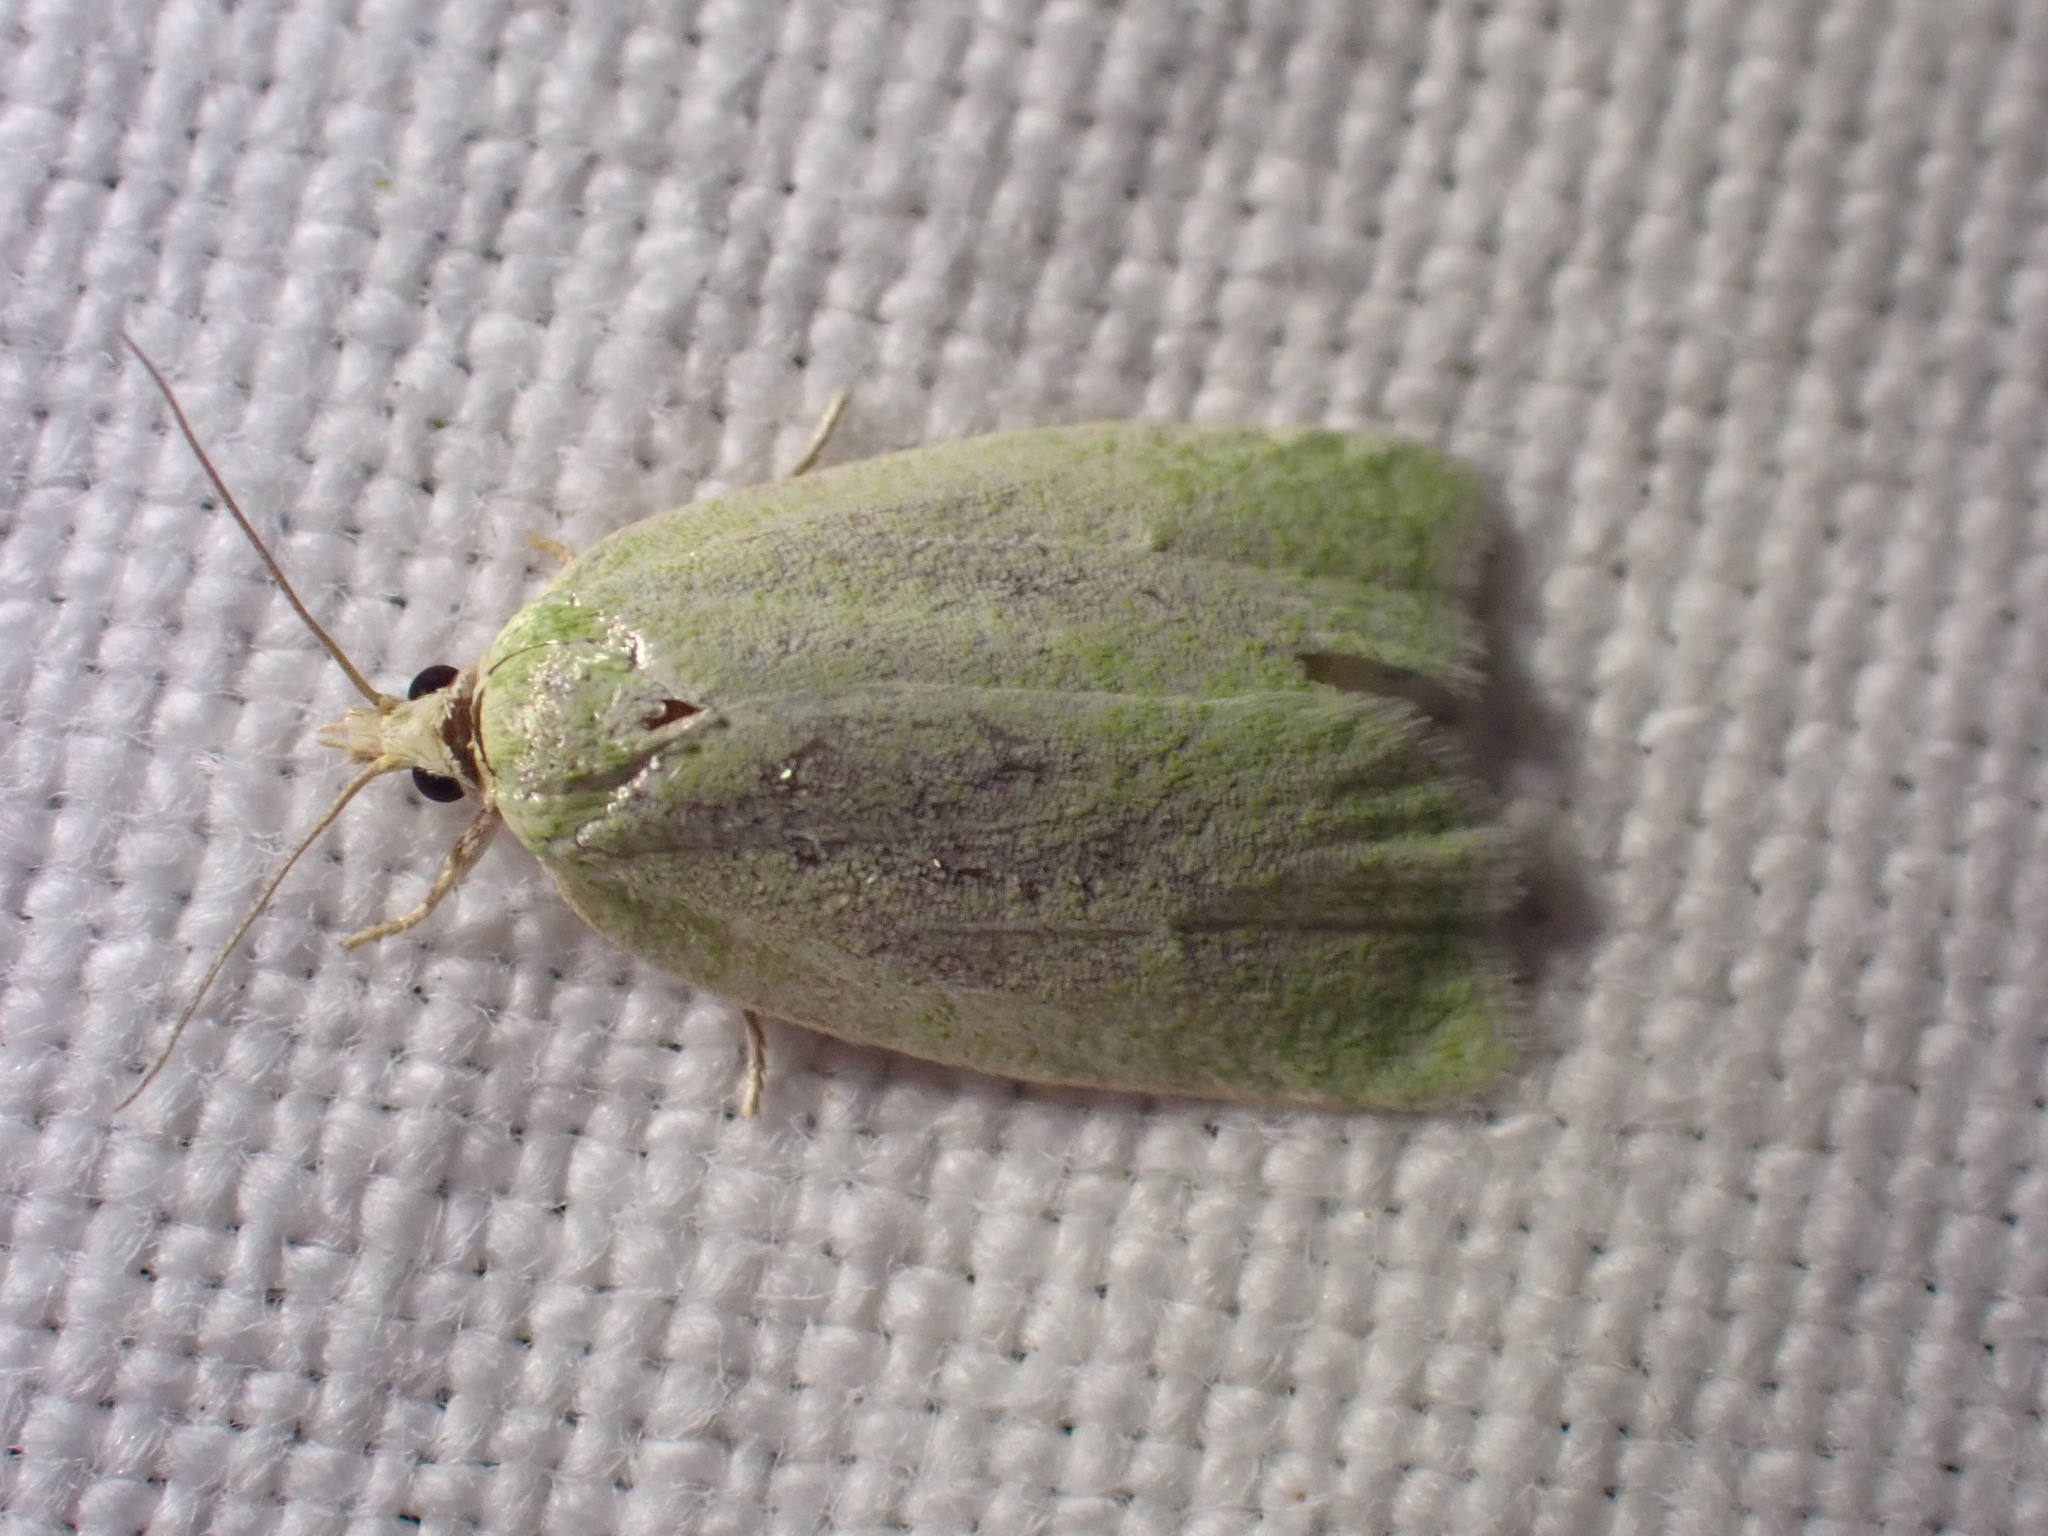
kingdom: Animalia
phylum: Arthropoda
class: Insecta
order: Lepidoptera
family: Tortricidae
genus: Tortrix
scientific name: Tortrix viridana
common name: Green oak tortrix
